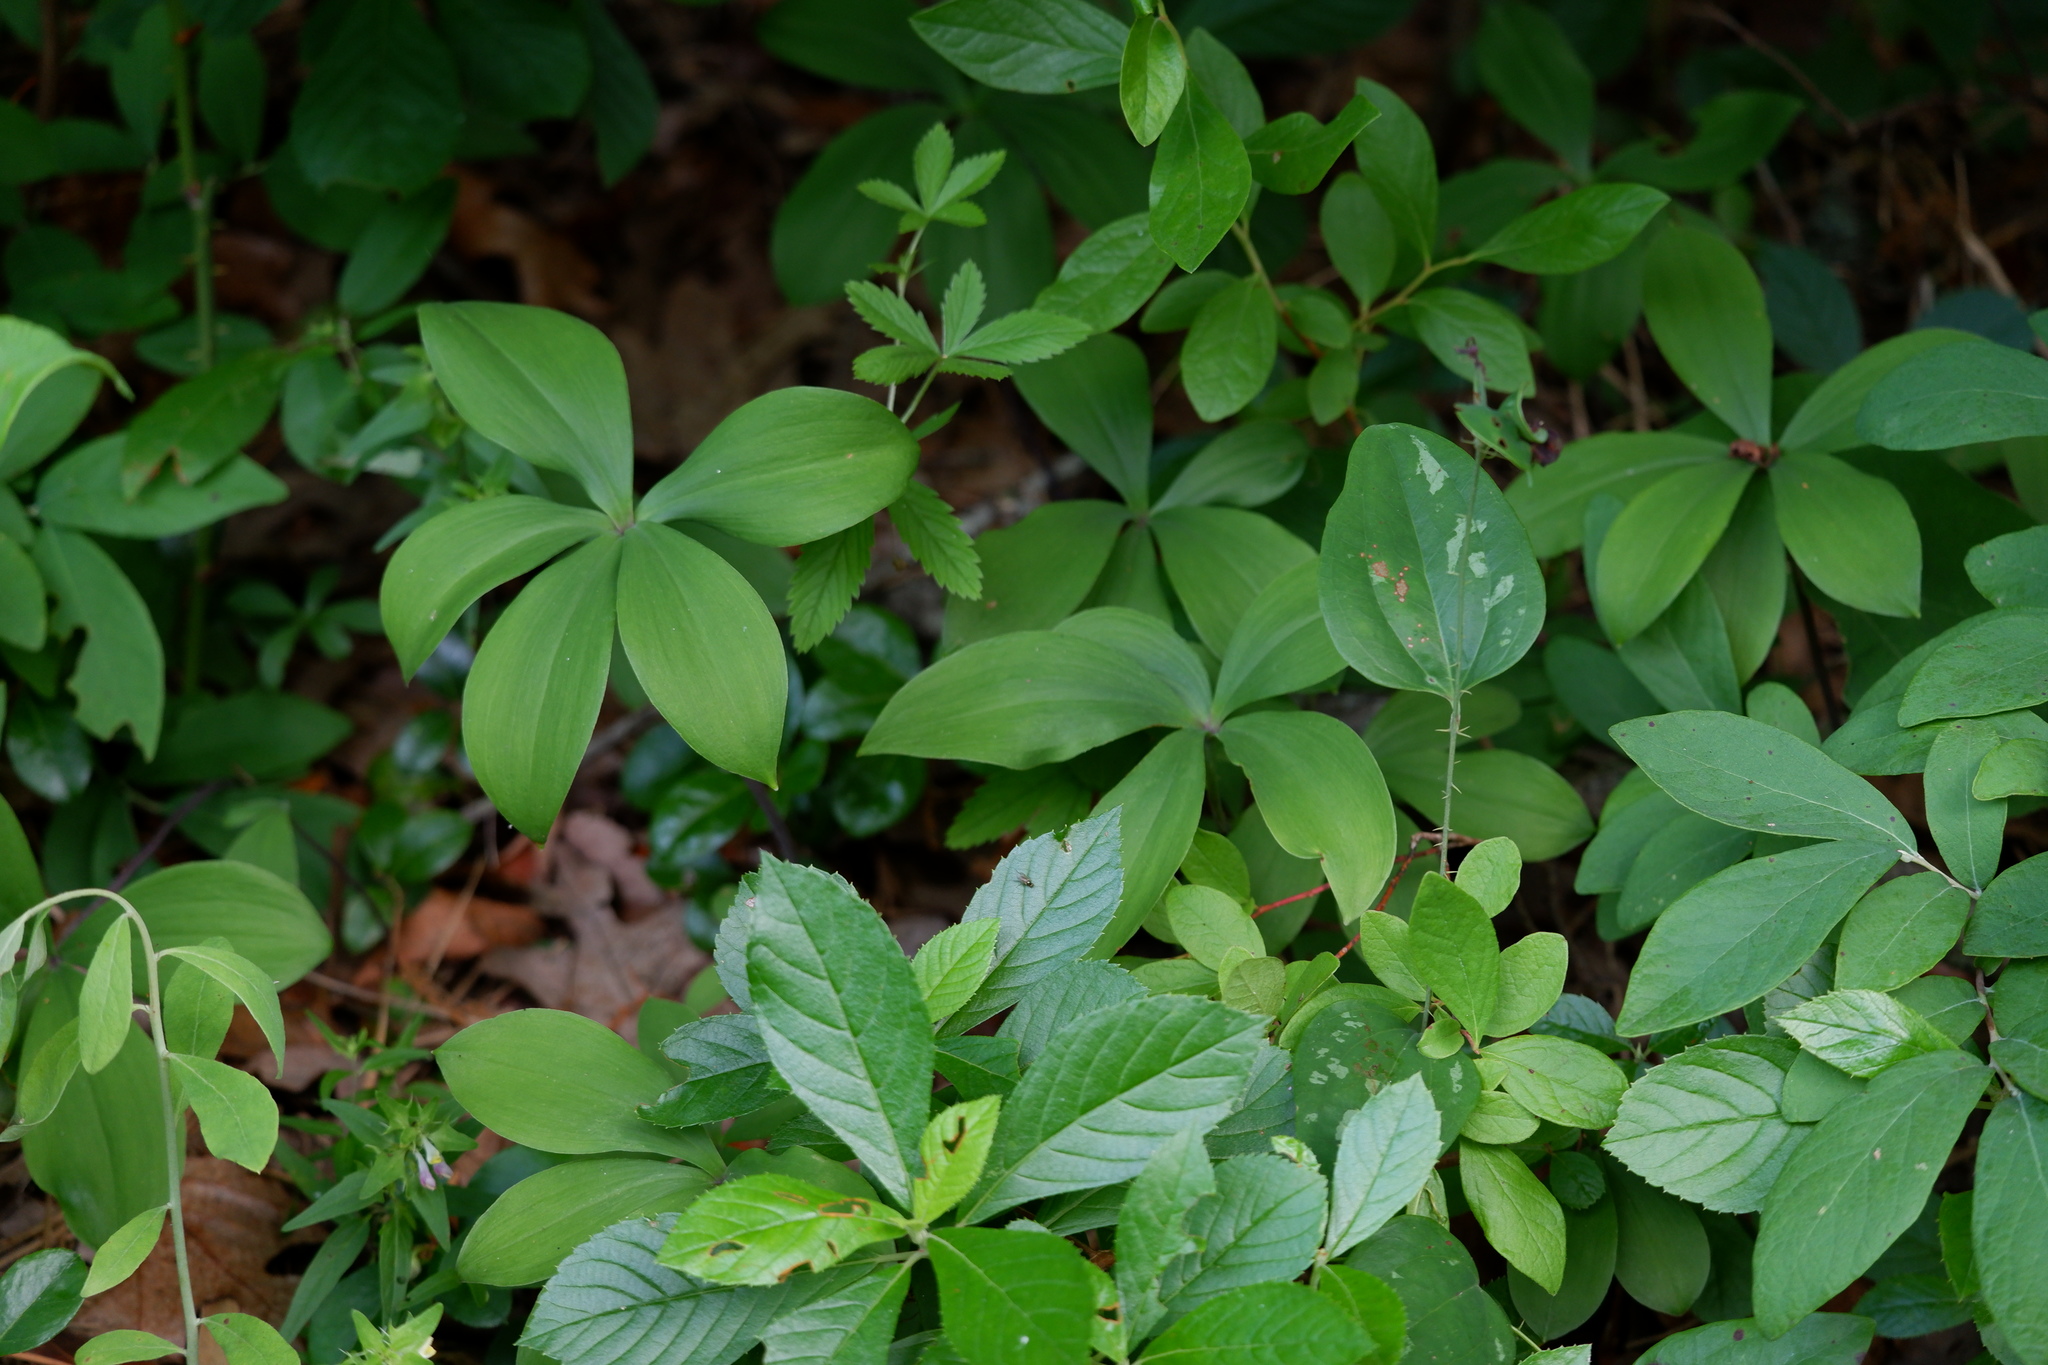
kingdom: Plantae
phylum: Tracheophyta
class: Liliopsida
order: Asparagales
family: Orchidaceae
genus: Isotria
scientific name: Isotria verticillata
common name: Large whorled pogonia
